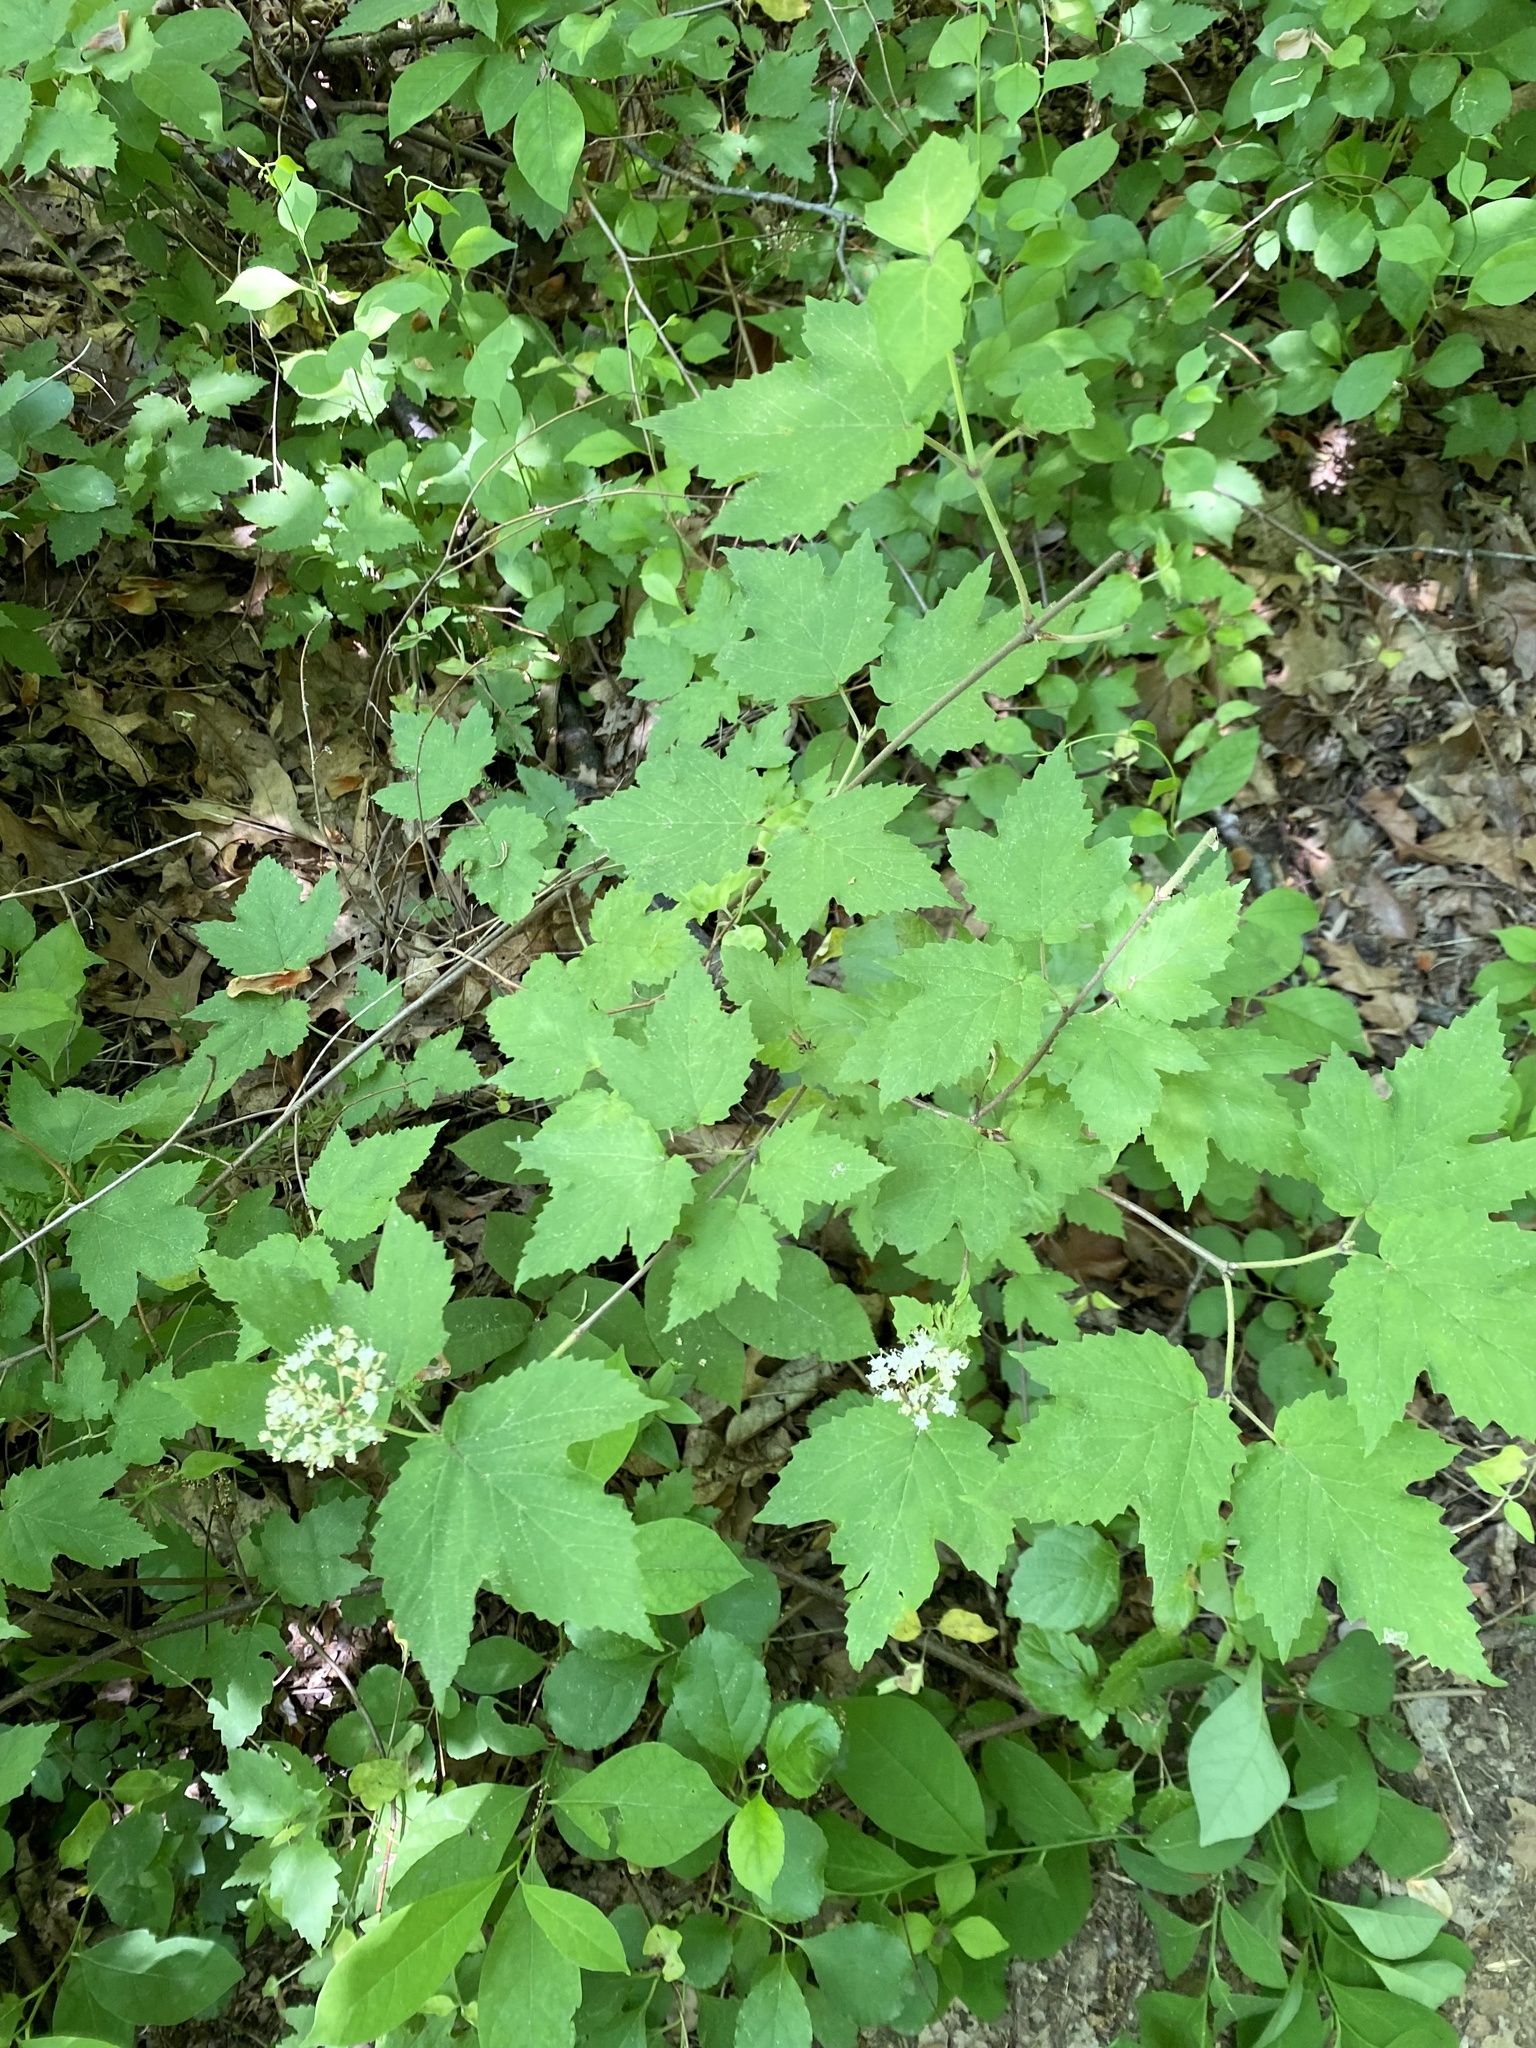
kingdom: Plantae
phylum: Tracheophyta
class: Magnoliopsida
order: Dipsacales
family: Viburnaceae
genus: Viburnum
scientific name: Viburnum acerifolium
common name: Dockmackie
